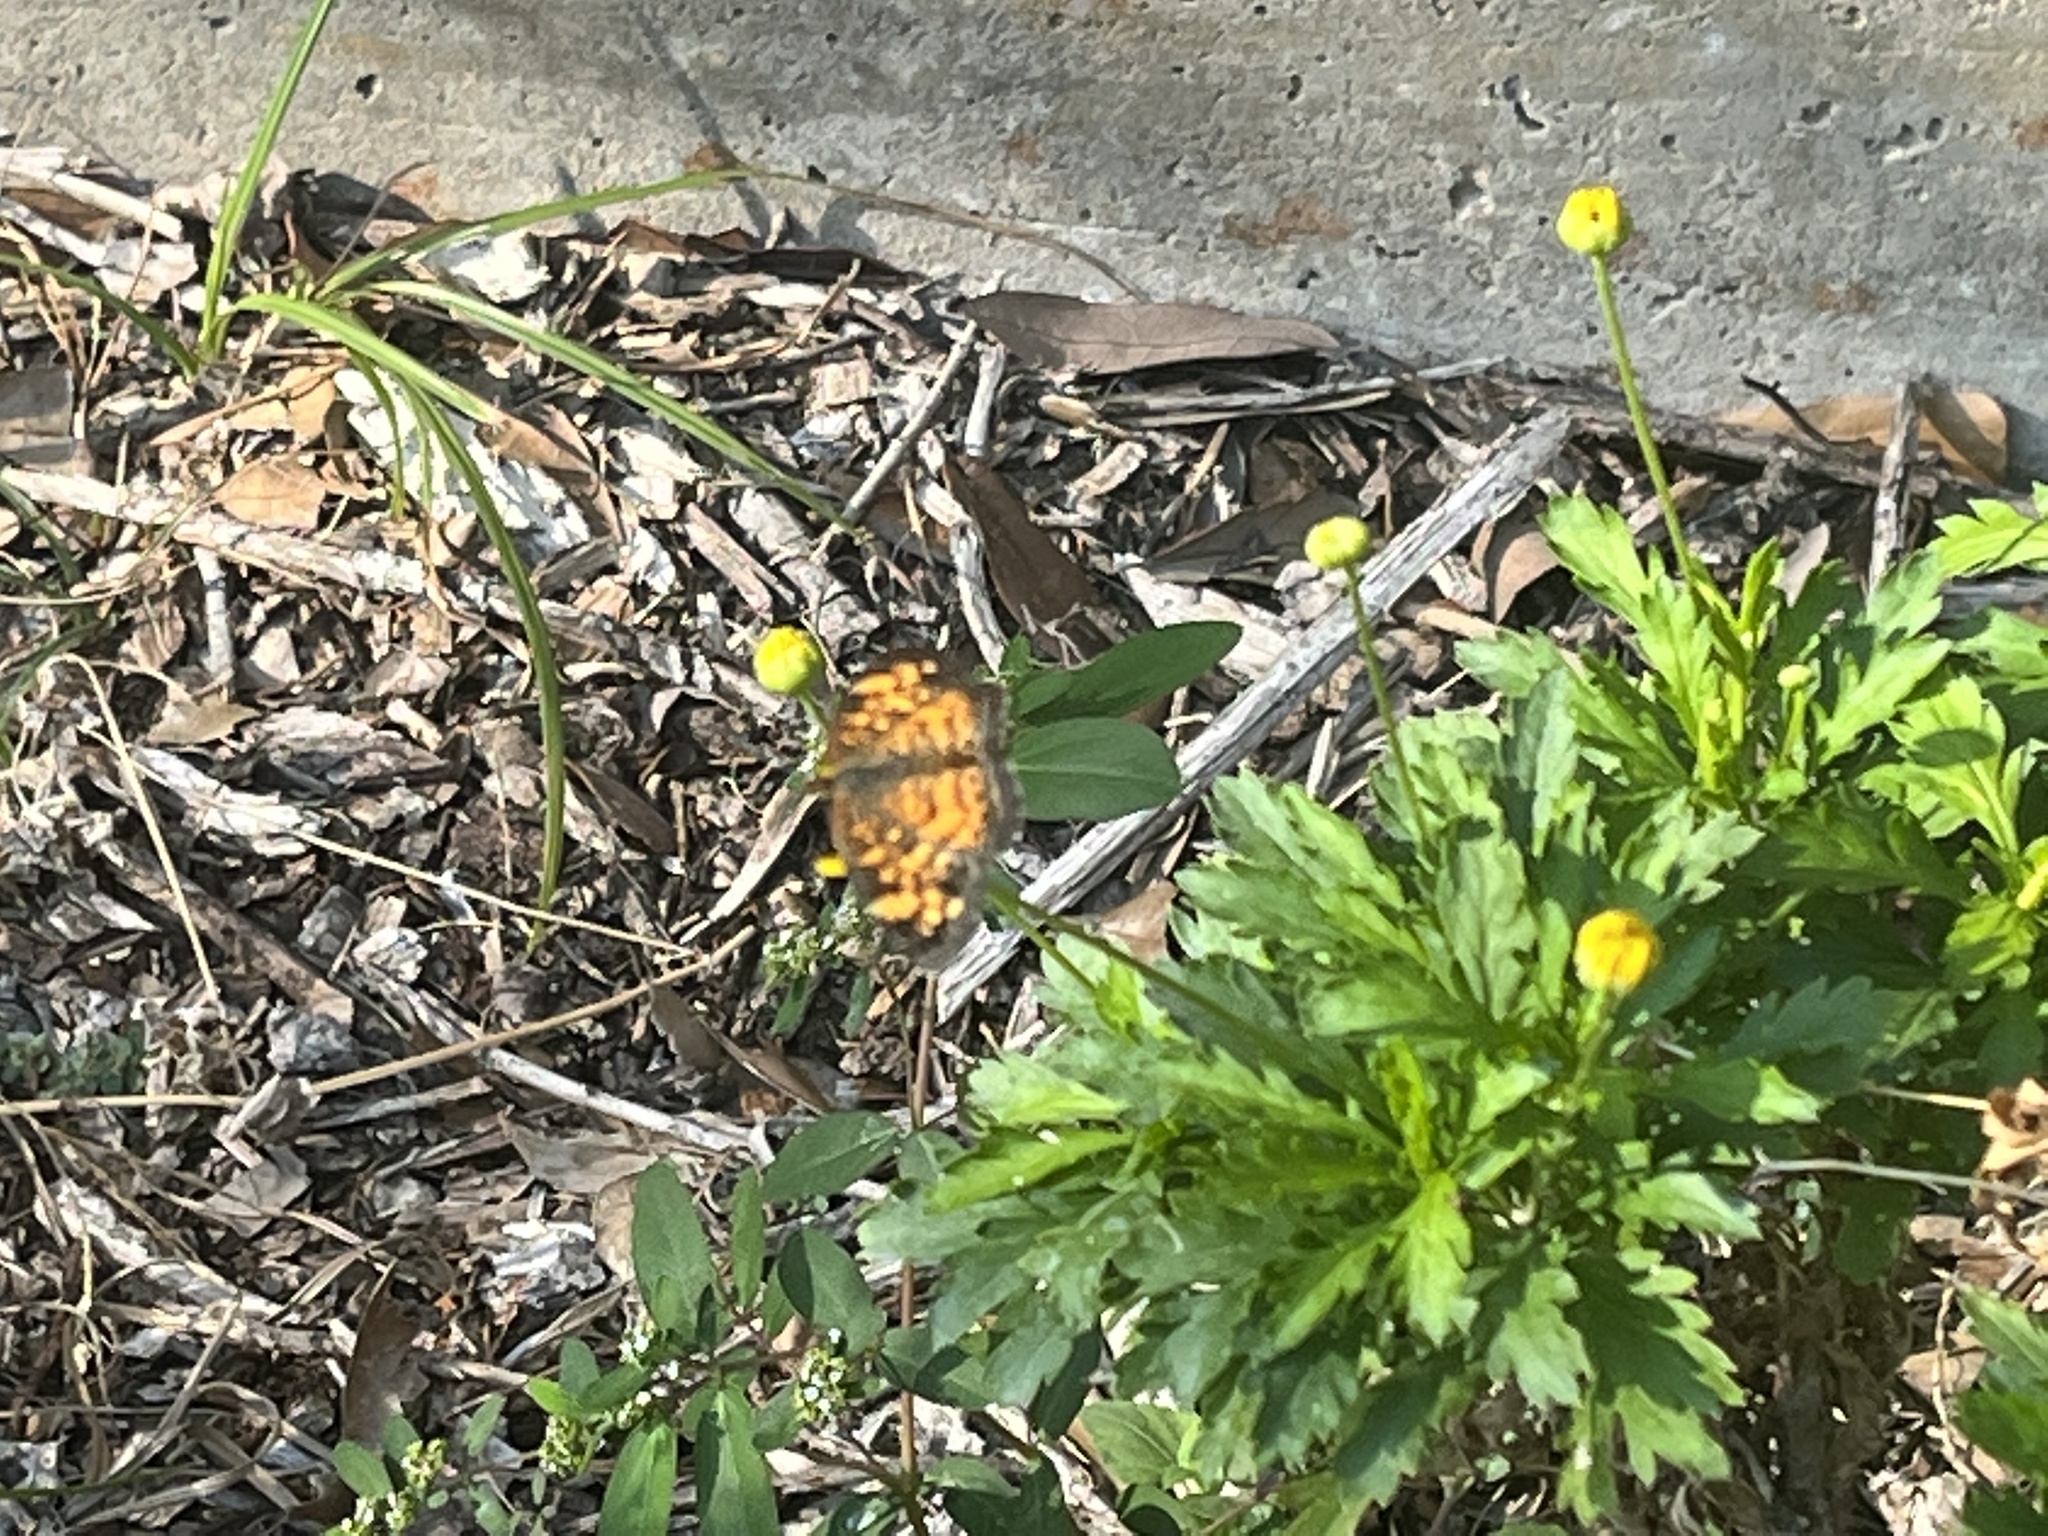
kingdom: Animalia
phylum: Arthropoda
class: Insecta
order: Lepidoptera
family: Nymphalidae
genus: Phyciodes
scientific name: Phyciodes tharos
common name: Pearl crescent
